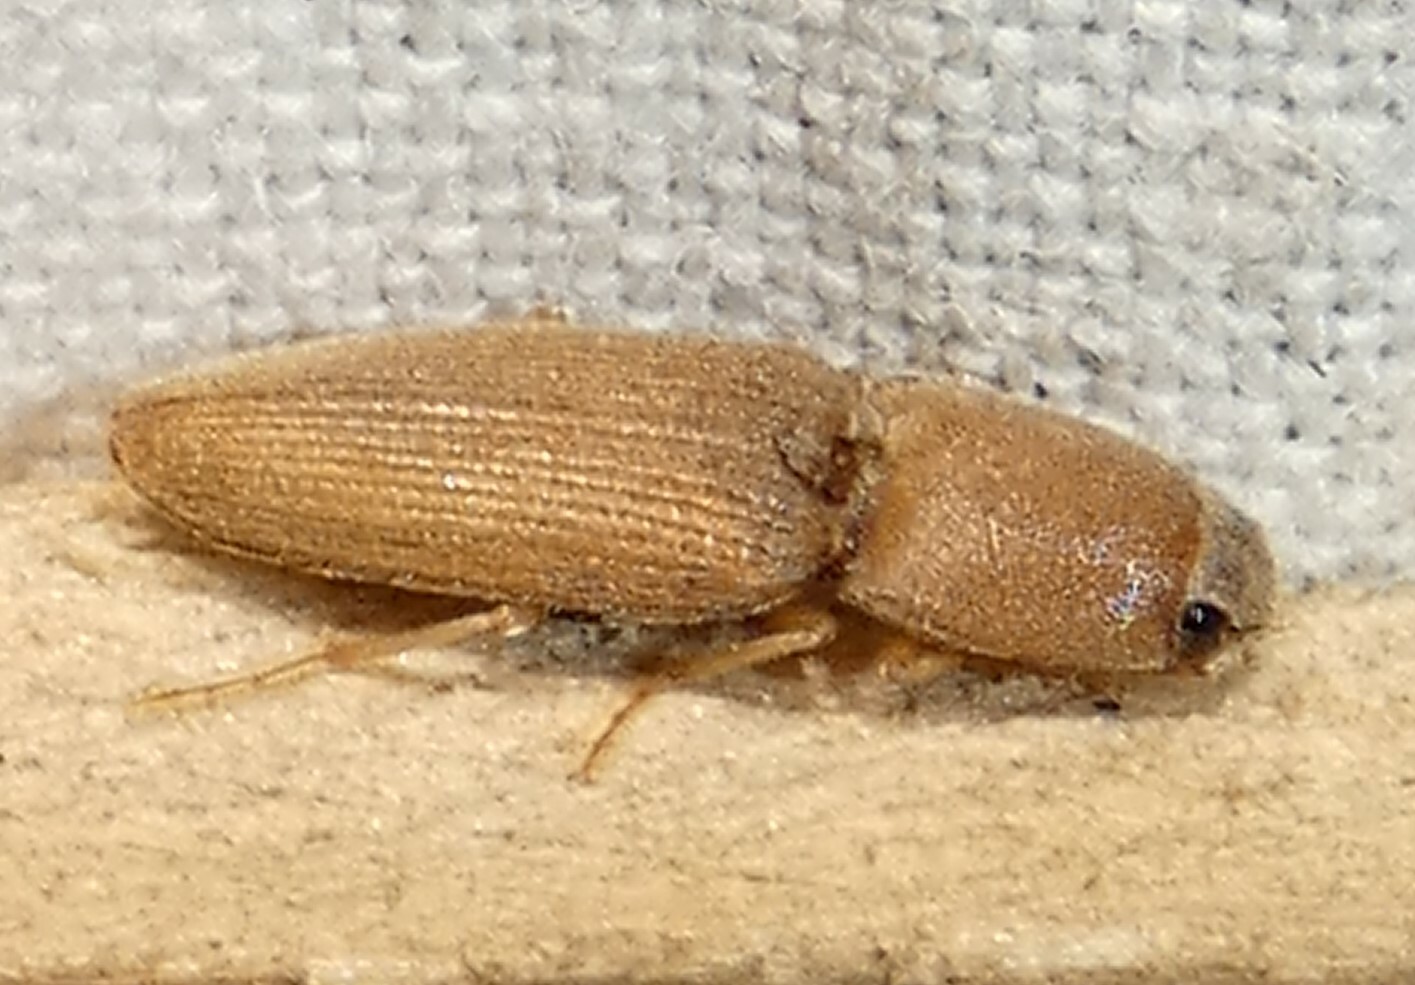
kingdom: Animalia
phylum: Arthropoda
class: Insecta
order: Coleoptera
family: Elateridae
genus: Monocrepidius
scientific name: Monocrepidius scissus
